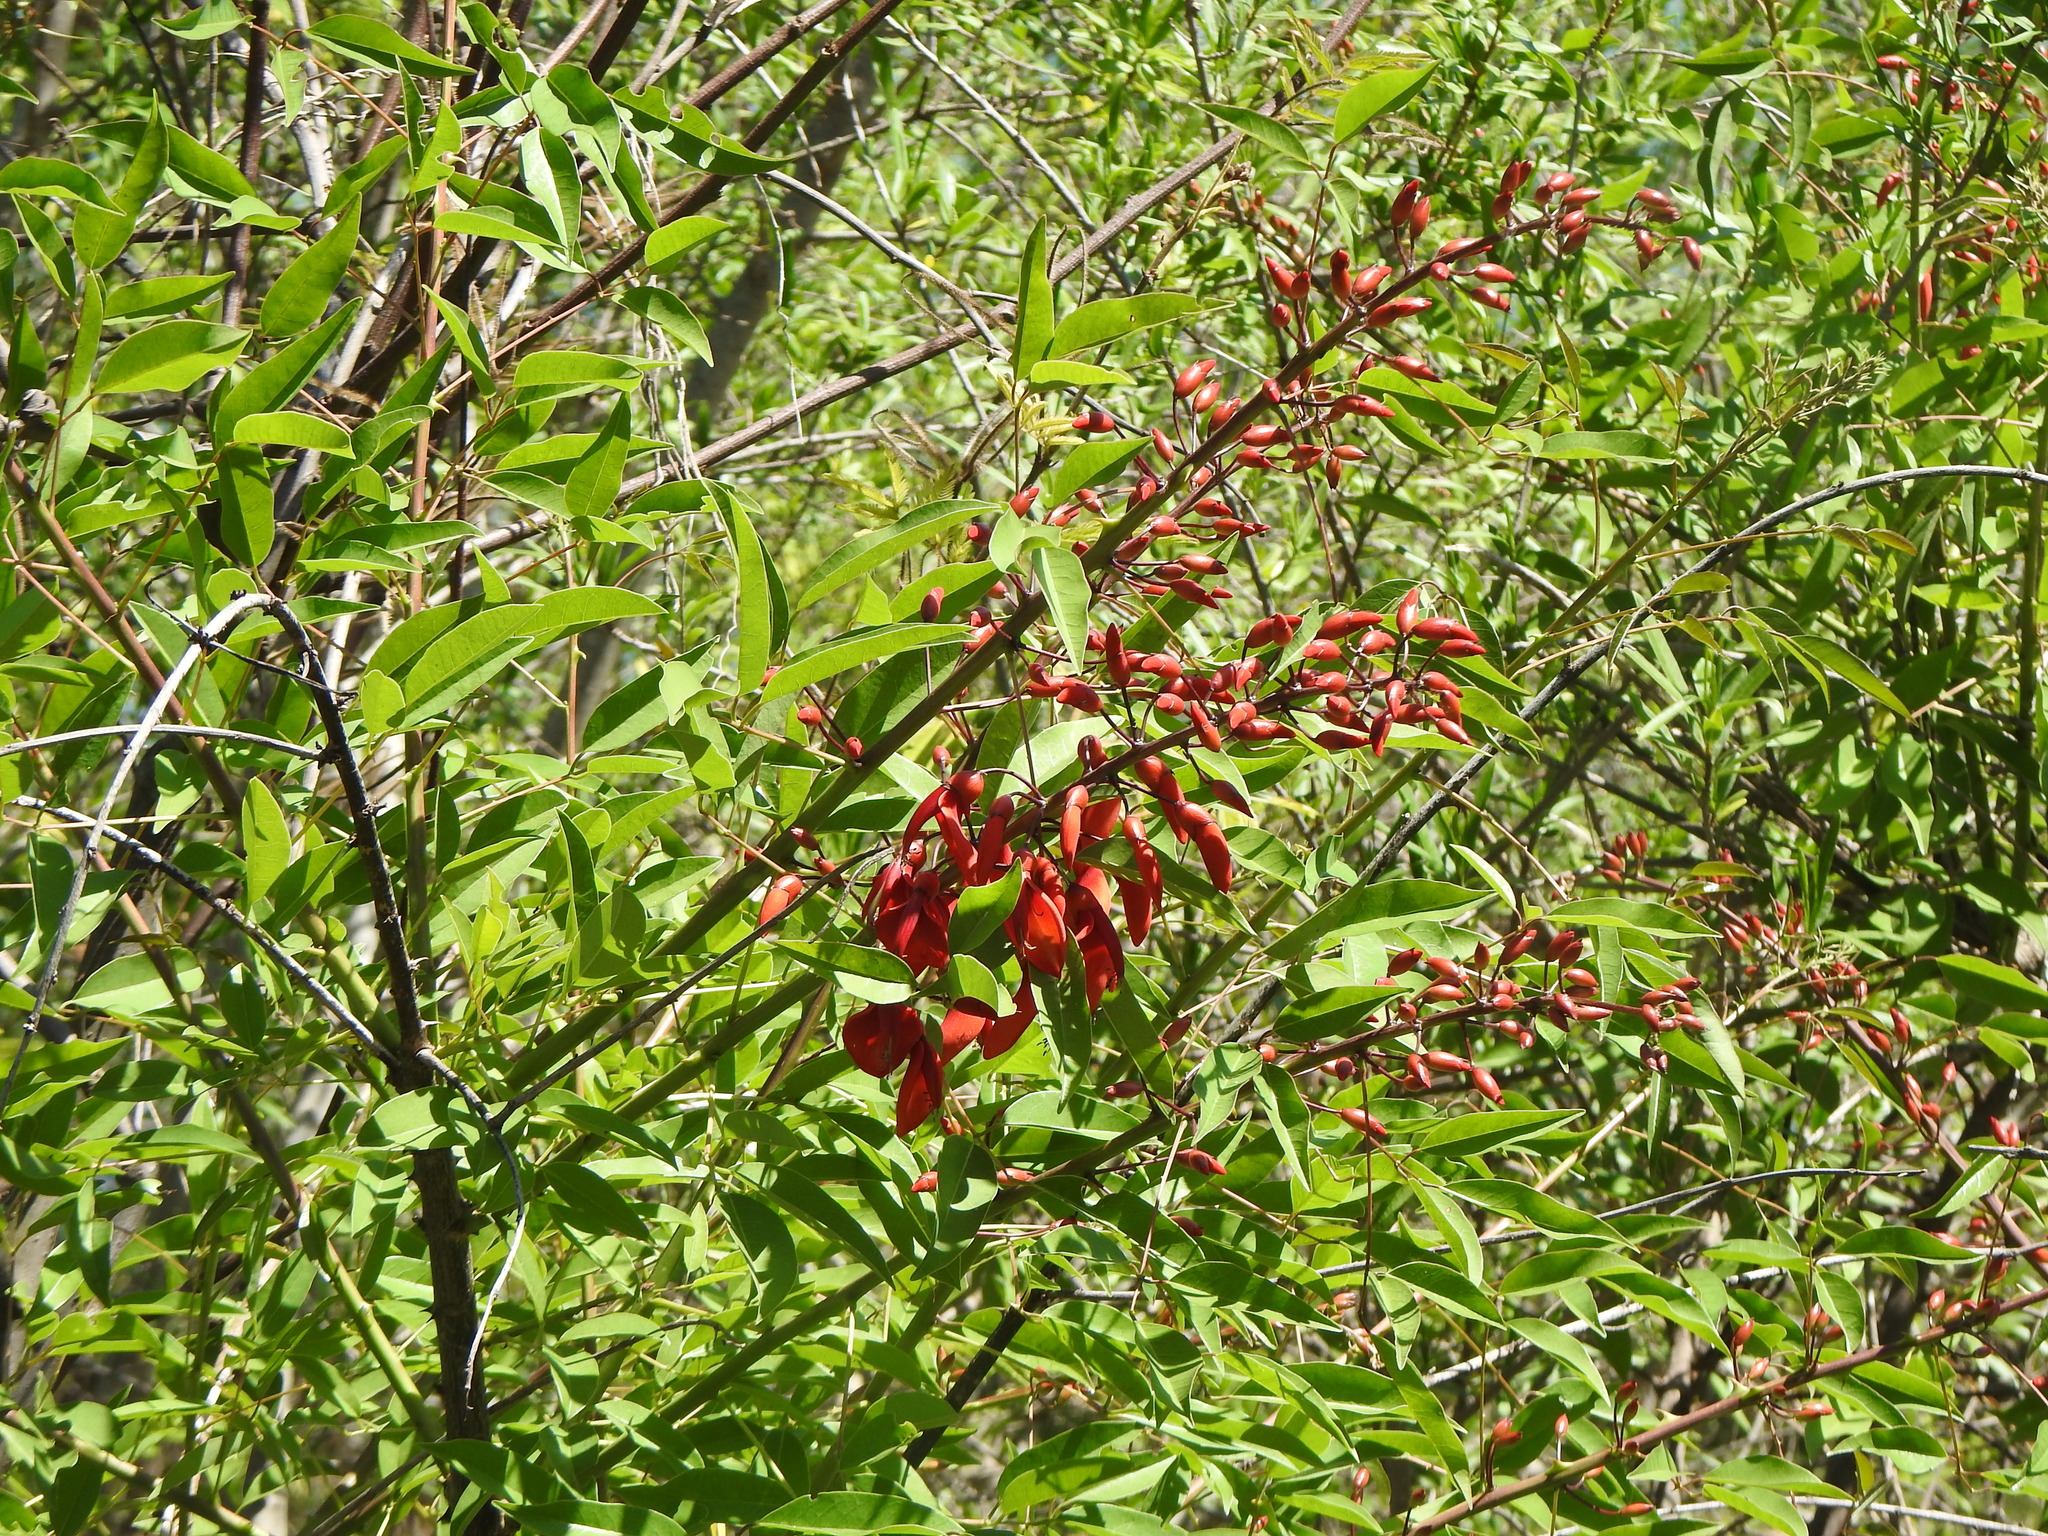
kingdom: Plantae
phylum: Tracheophyta
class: Magnoliopsida
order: Fabales
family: Fabaceae
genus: Erythrina
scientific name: Erythrina crista-galli
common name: Cockspur coral tree
